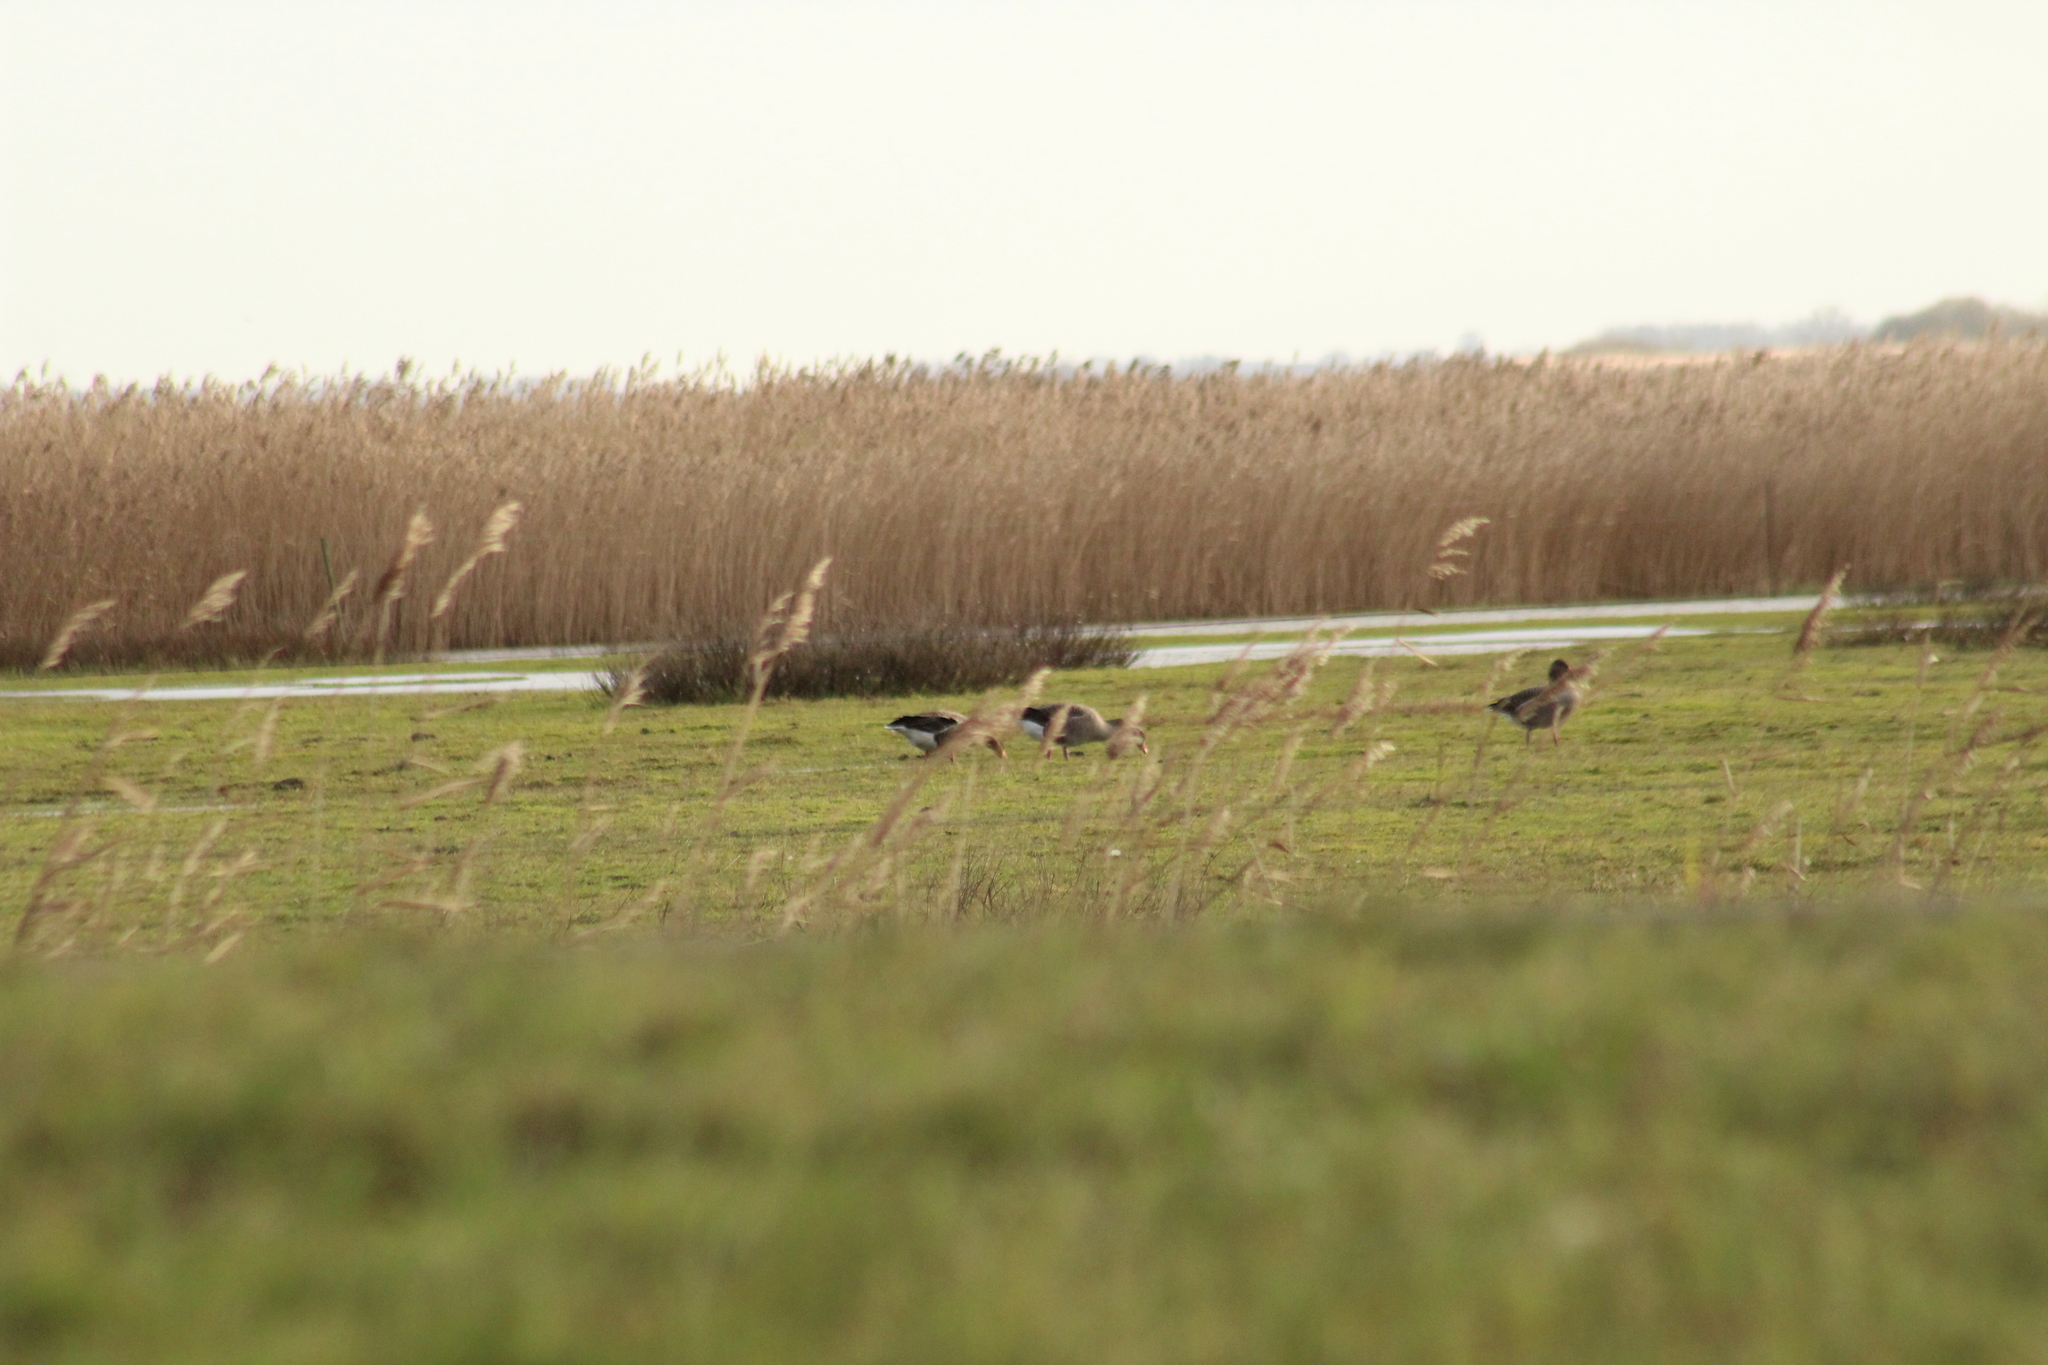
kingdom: Animalia
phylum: Chordata
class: Aves
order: Anseriformes
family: Anatidae
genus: Anser
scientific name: Anser anser
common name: Greylag goose
